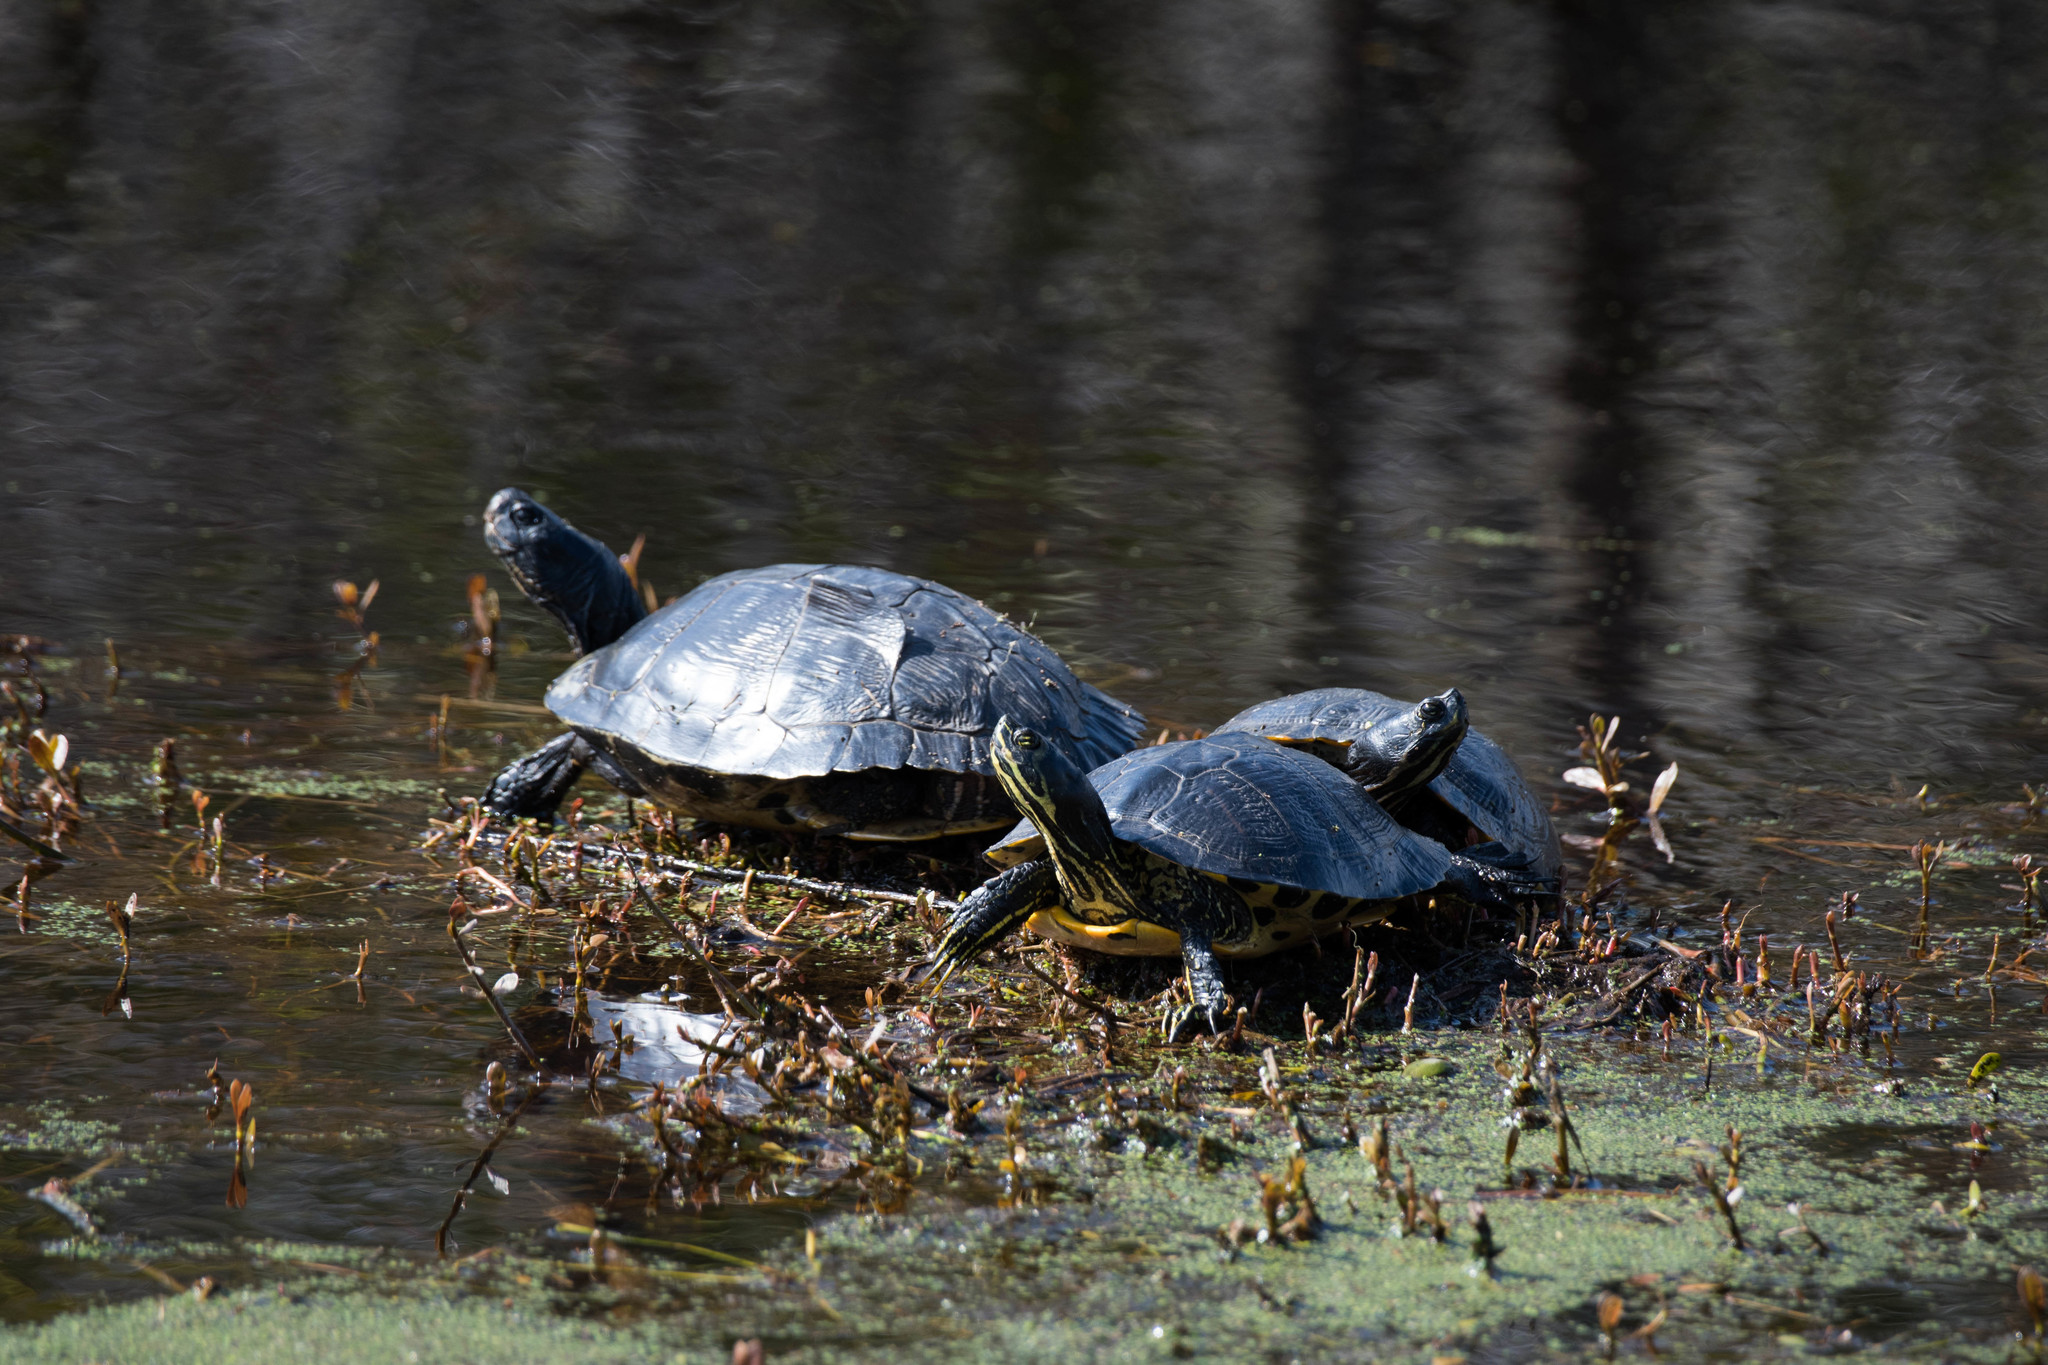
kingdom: Animalia
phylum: Chordata
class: Testudines
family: Emydidae
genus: Trachemys
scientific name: Trachemys scripta
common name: Slider
